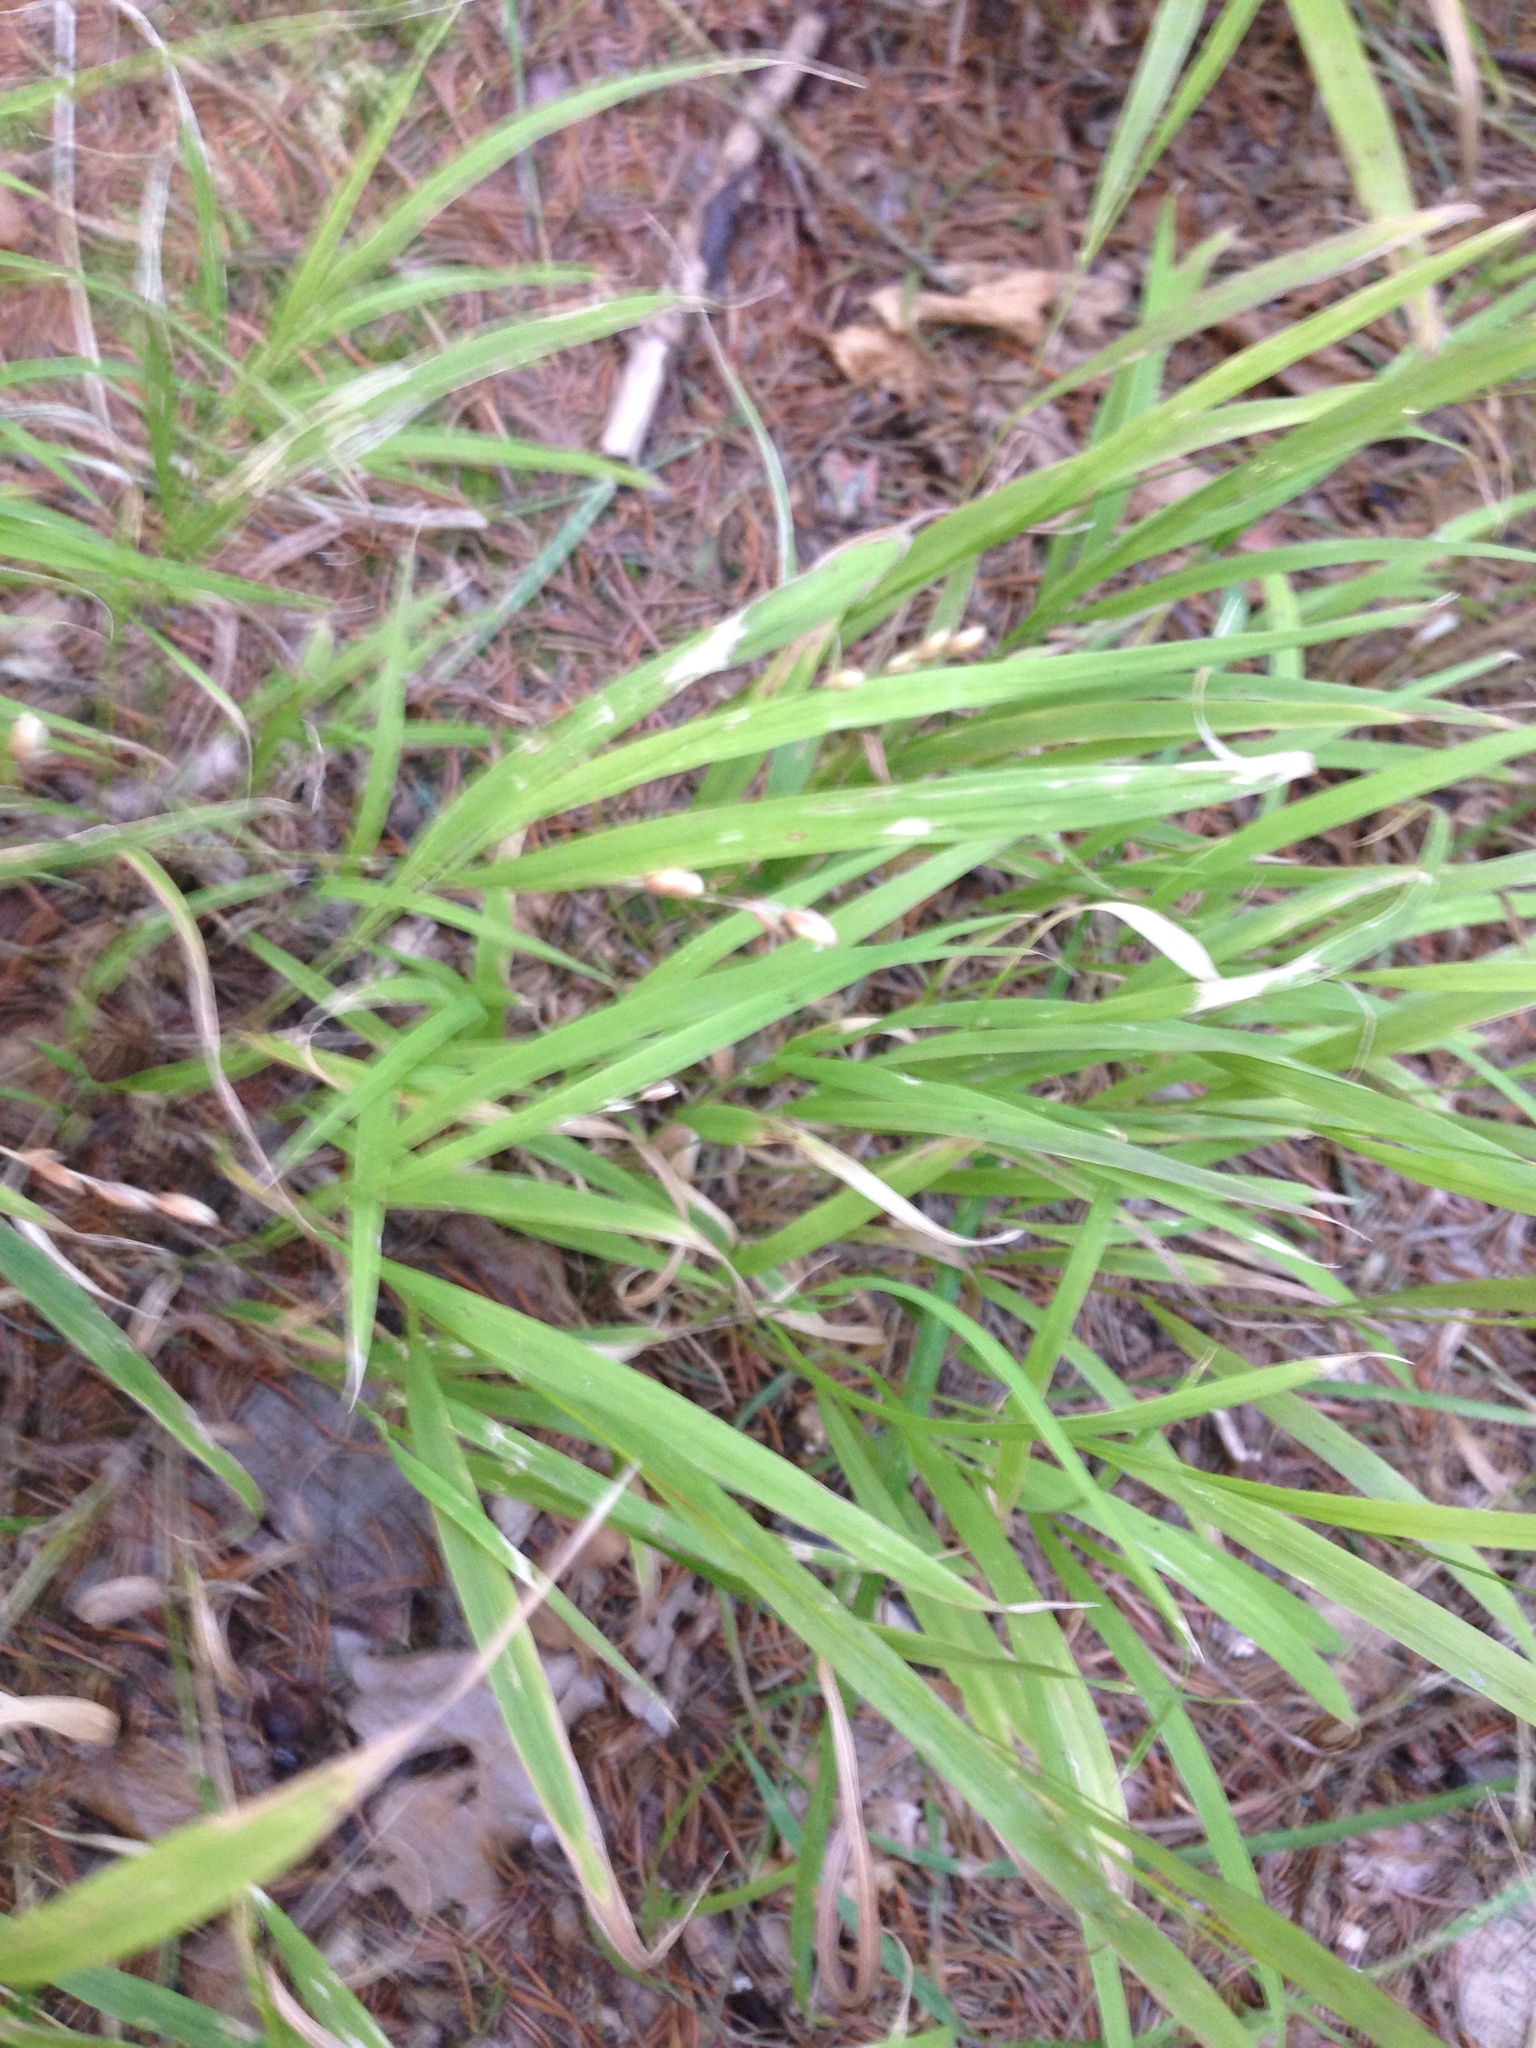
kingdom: Plantae
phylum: Tracheophyta
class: Liliopsida
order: Poales
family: Poaceae
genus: Melica
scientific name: Melica uniflora
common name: Wood melick
